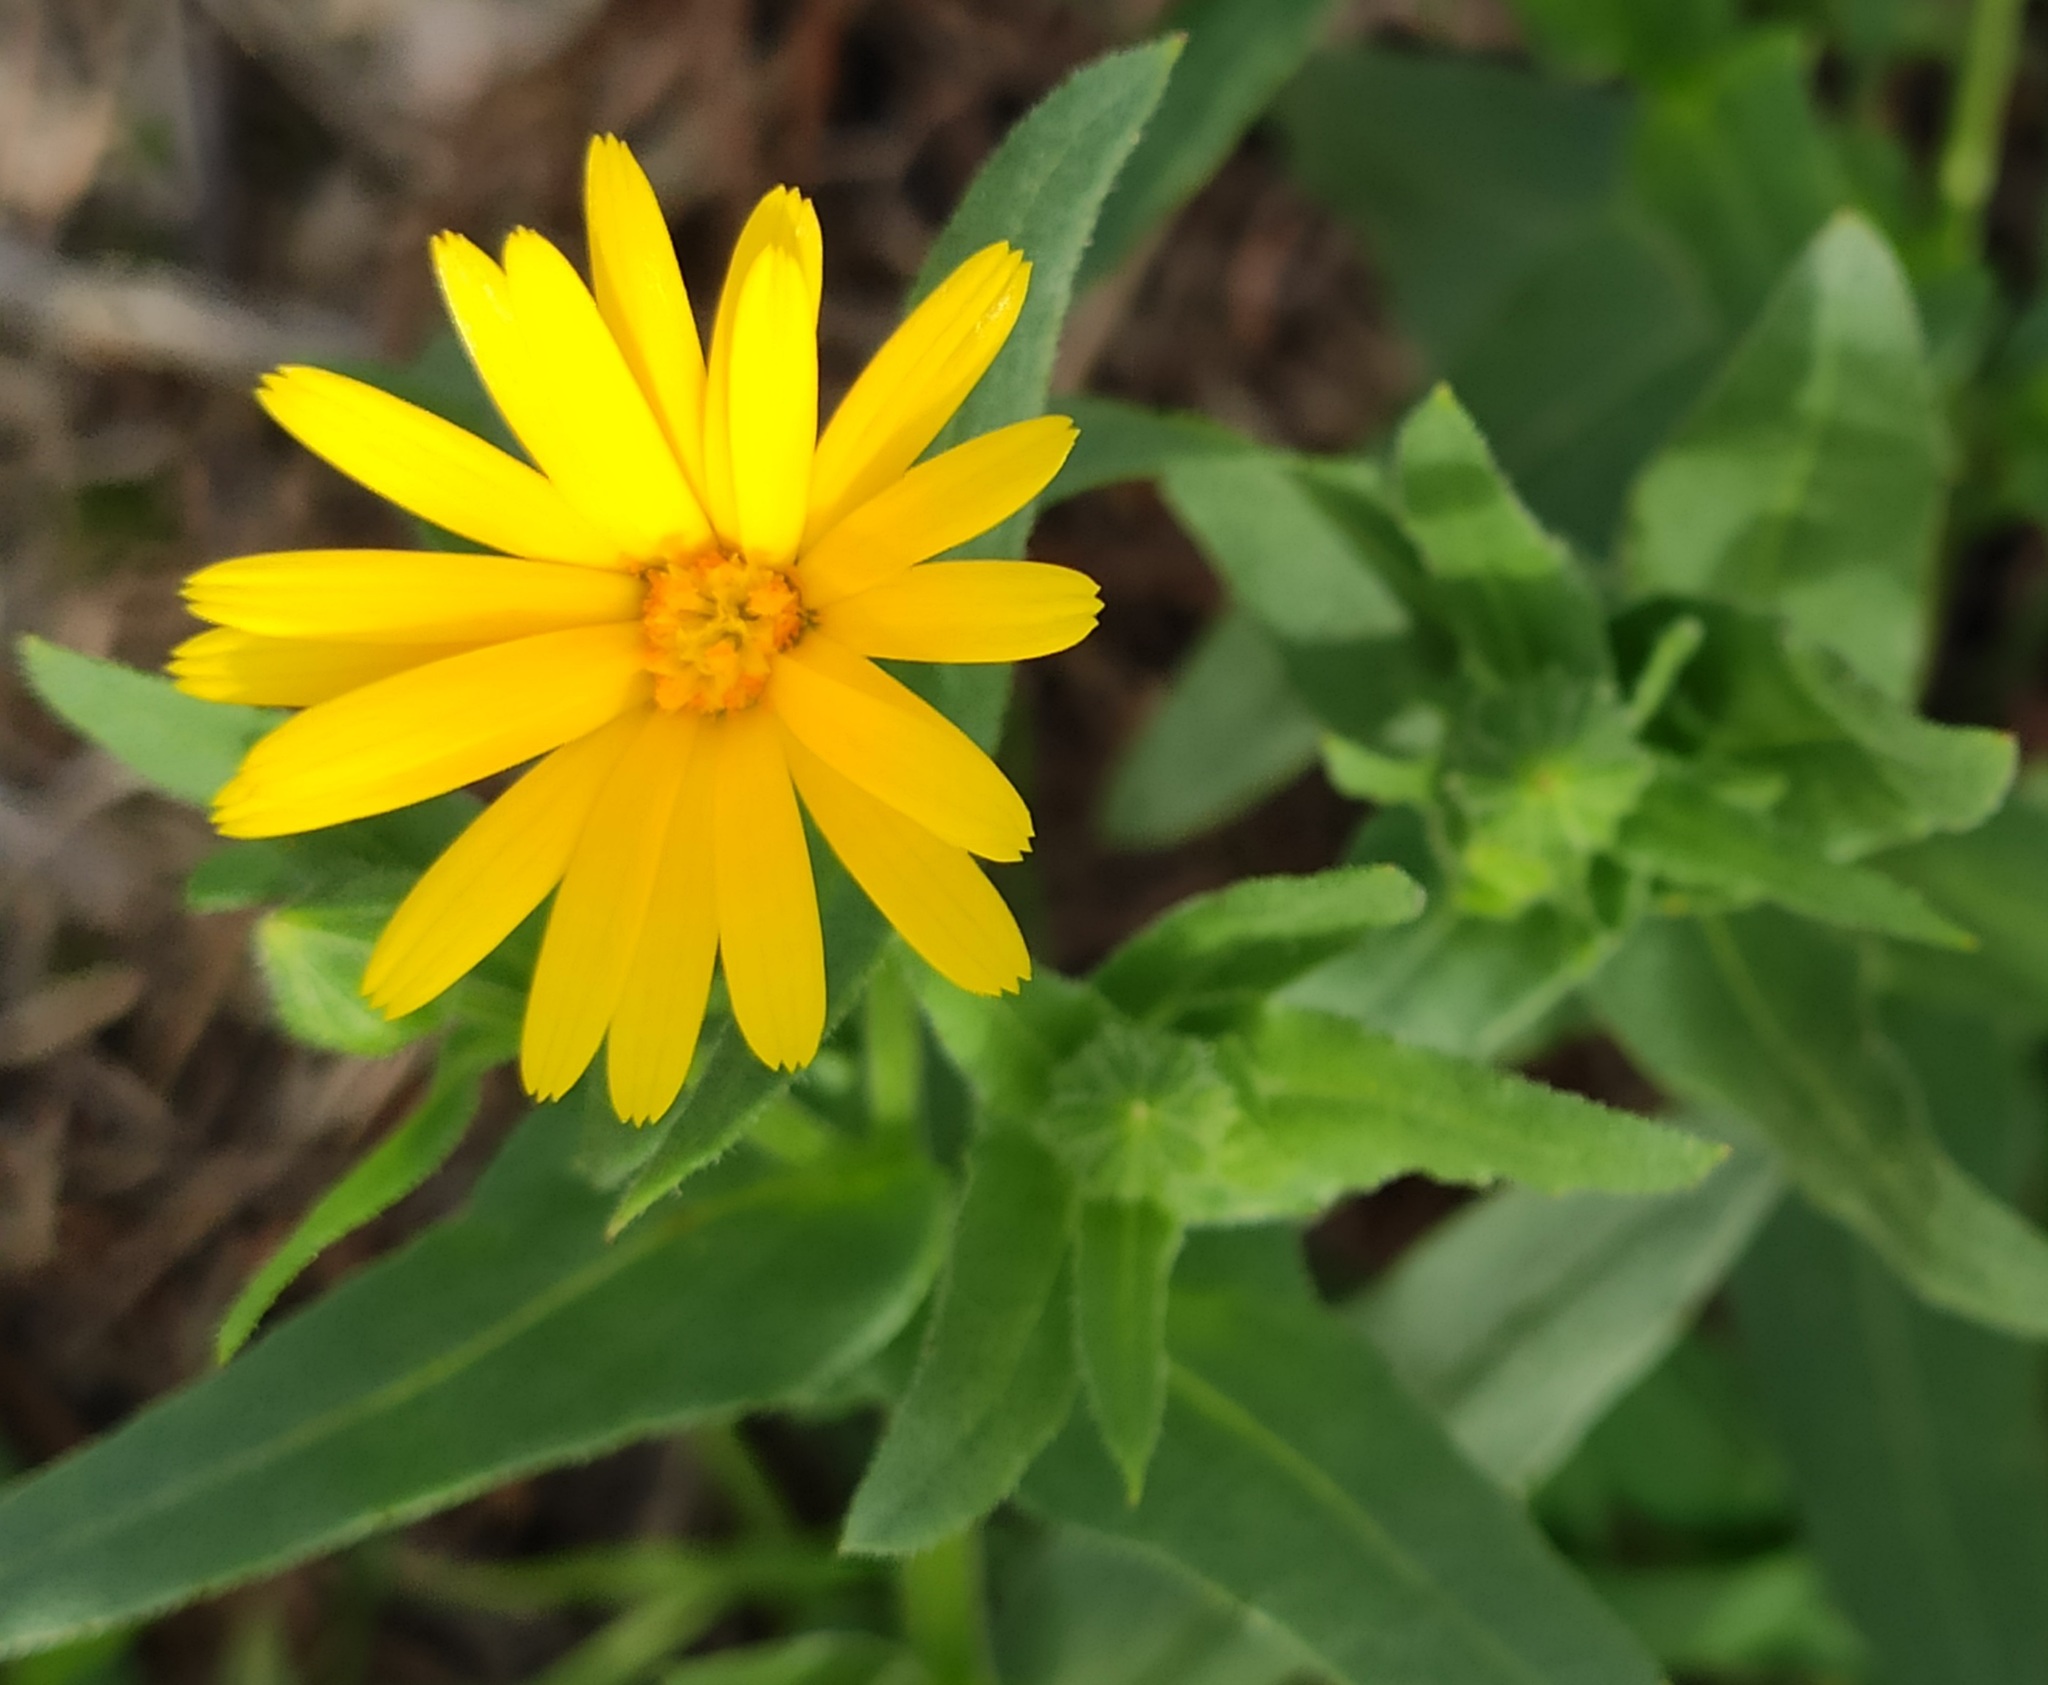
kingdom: Plantae
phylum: Tracheophyta
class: Magnoliopsida
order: Asterales
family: Asteraceae
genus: Calendula
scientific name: Calendula arvensis
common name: Field marigold
